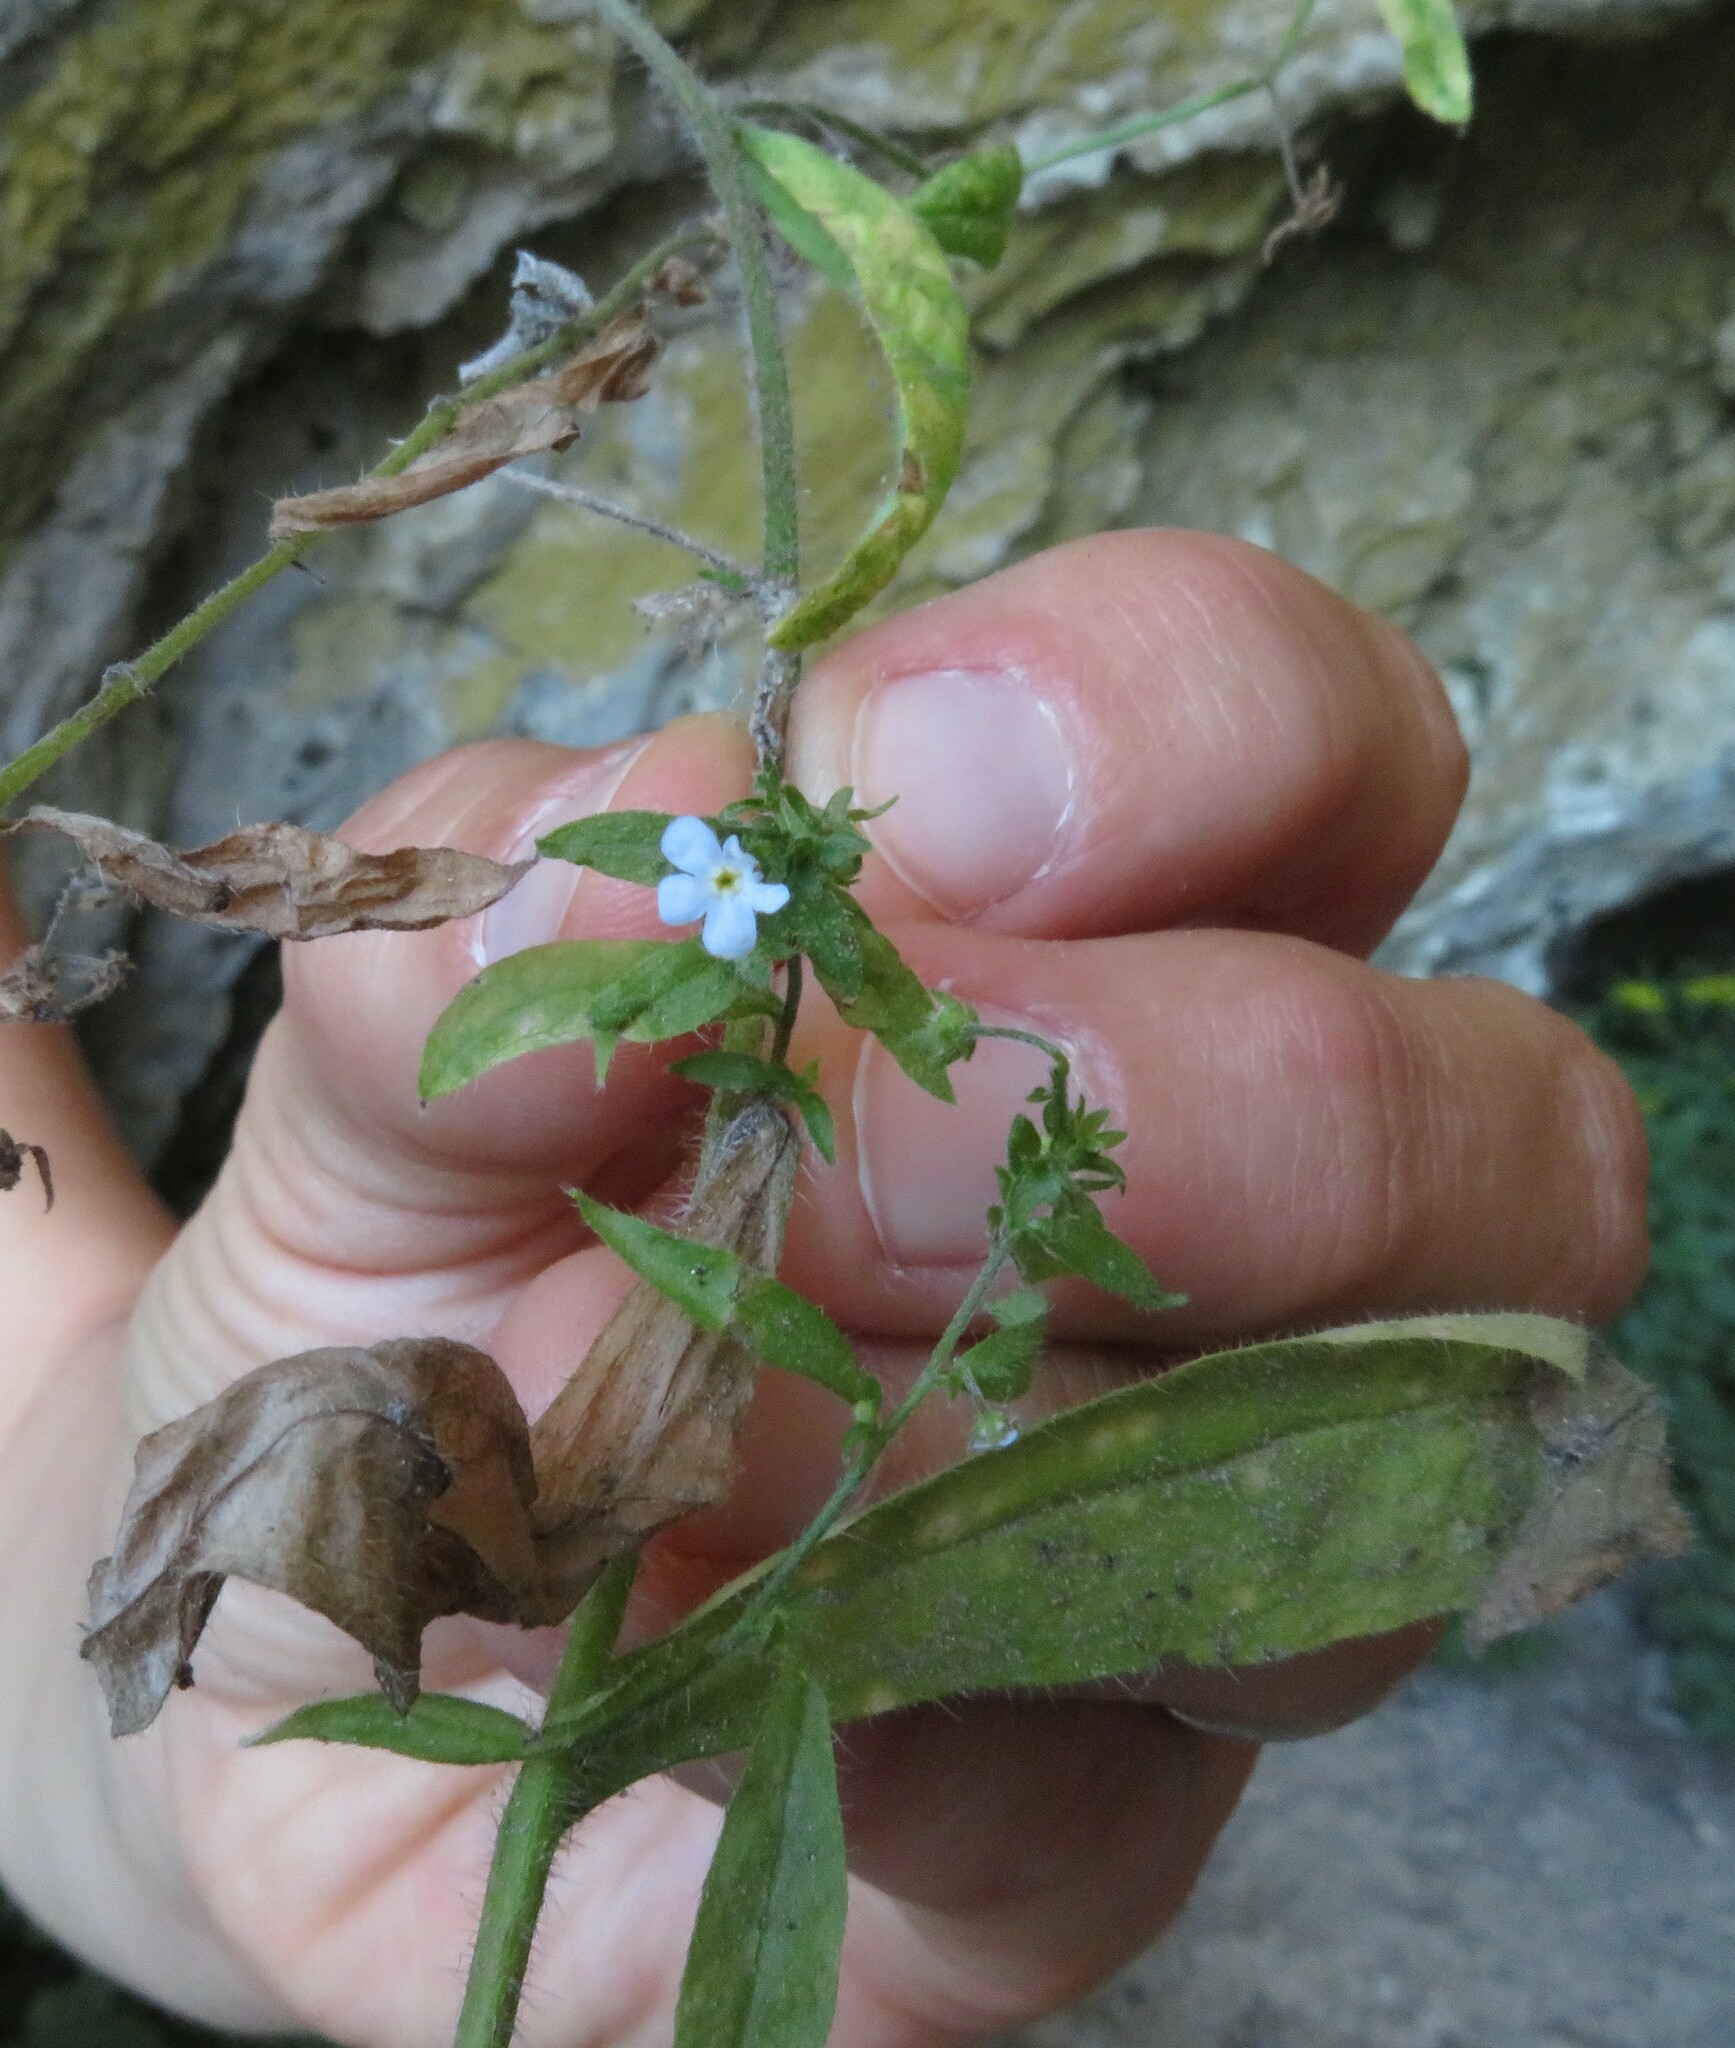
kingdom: Plantae
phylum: Tracheophyta
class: Magnoliopsida
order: Boraginales
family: Boraginaceae
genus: Hackelia
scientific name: Hackelia deflexa
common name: Nodding stickseed
